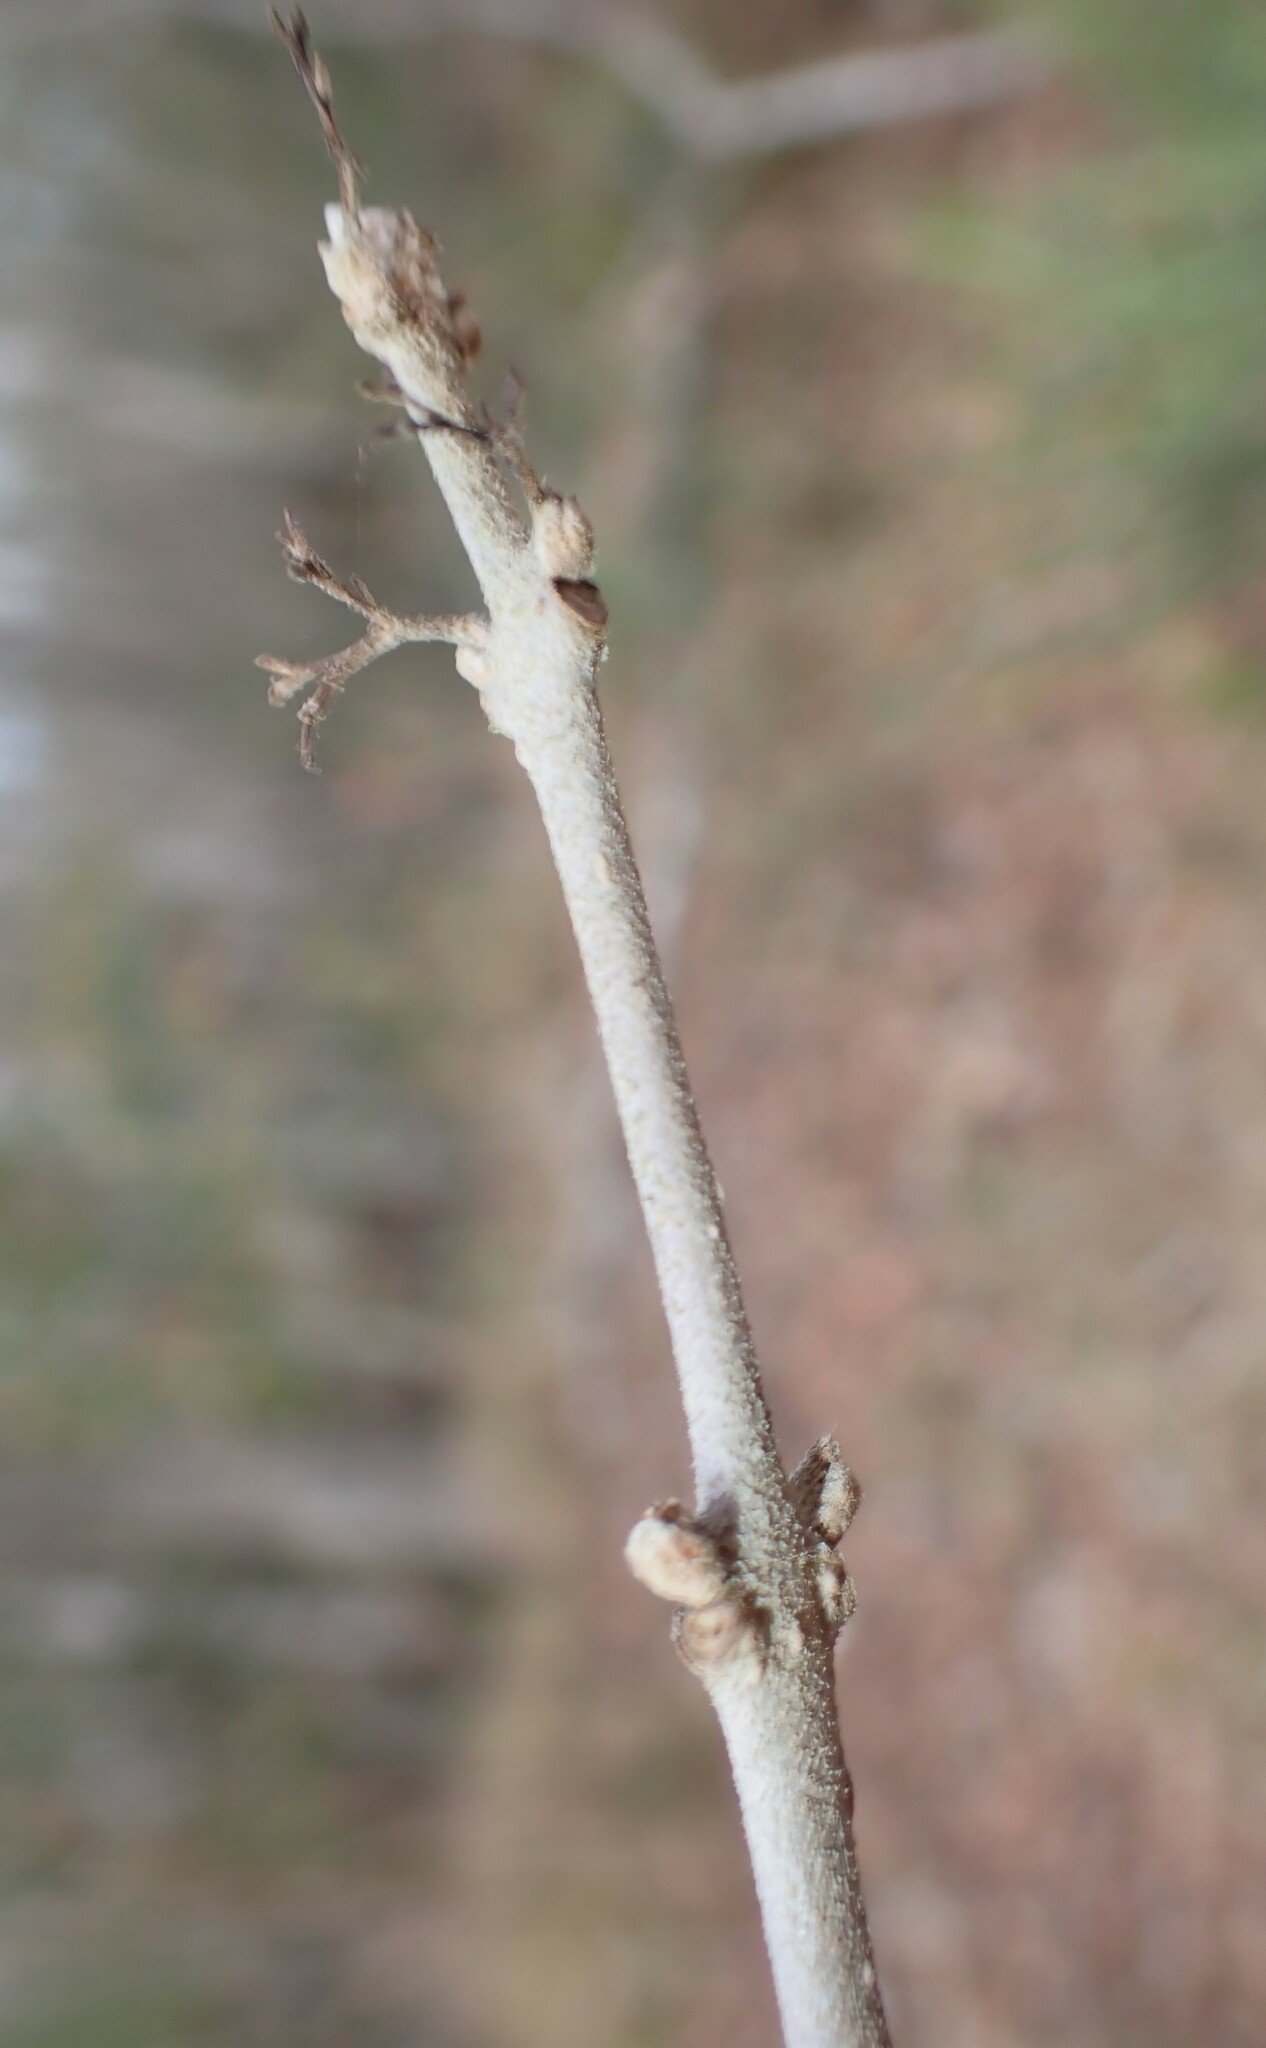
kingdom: Plantae
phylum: Tracheophyta
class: Magnoliopsida
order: Lamiales
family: Lamiaceae
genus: Callicarpa
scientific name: Callicarpa americana
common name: American beautyberry
